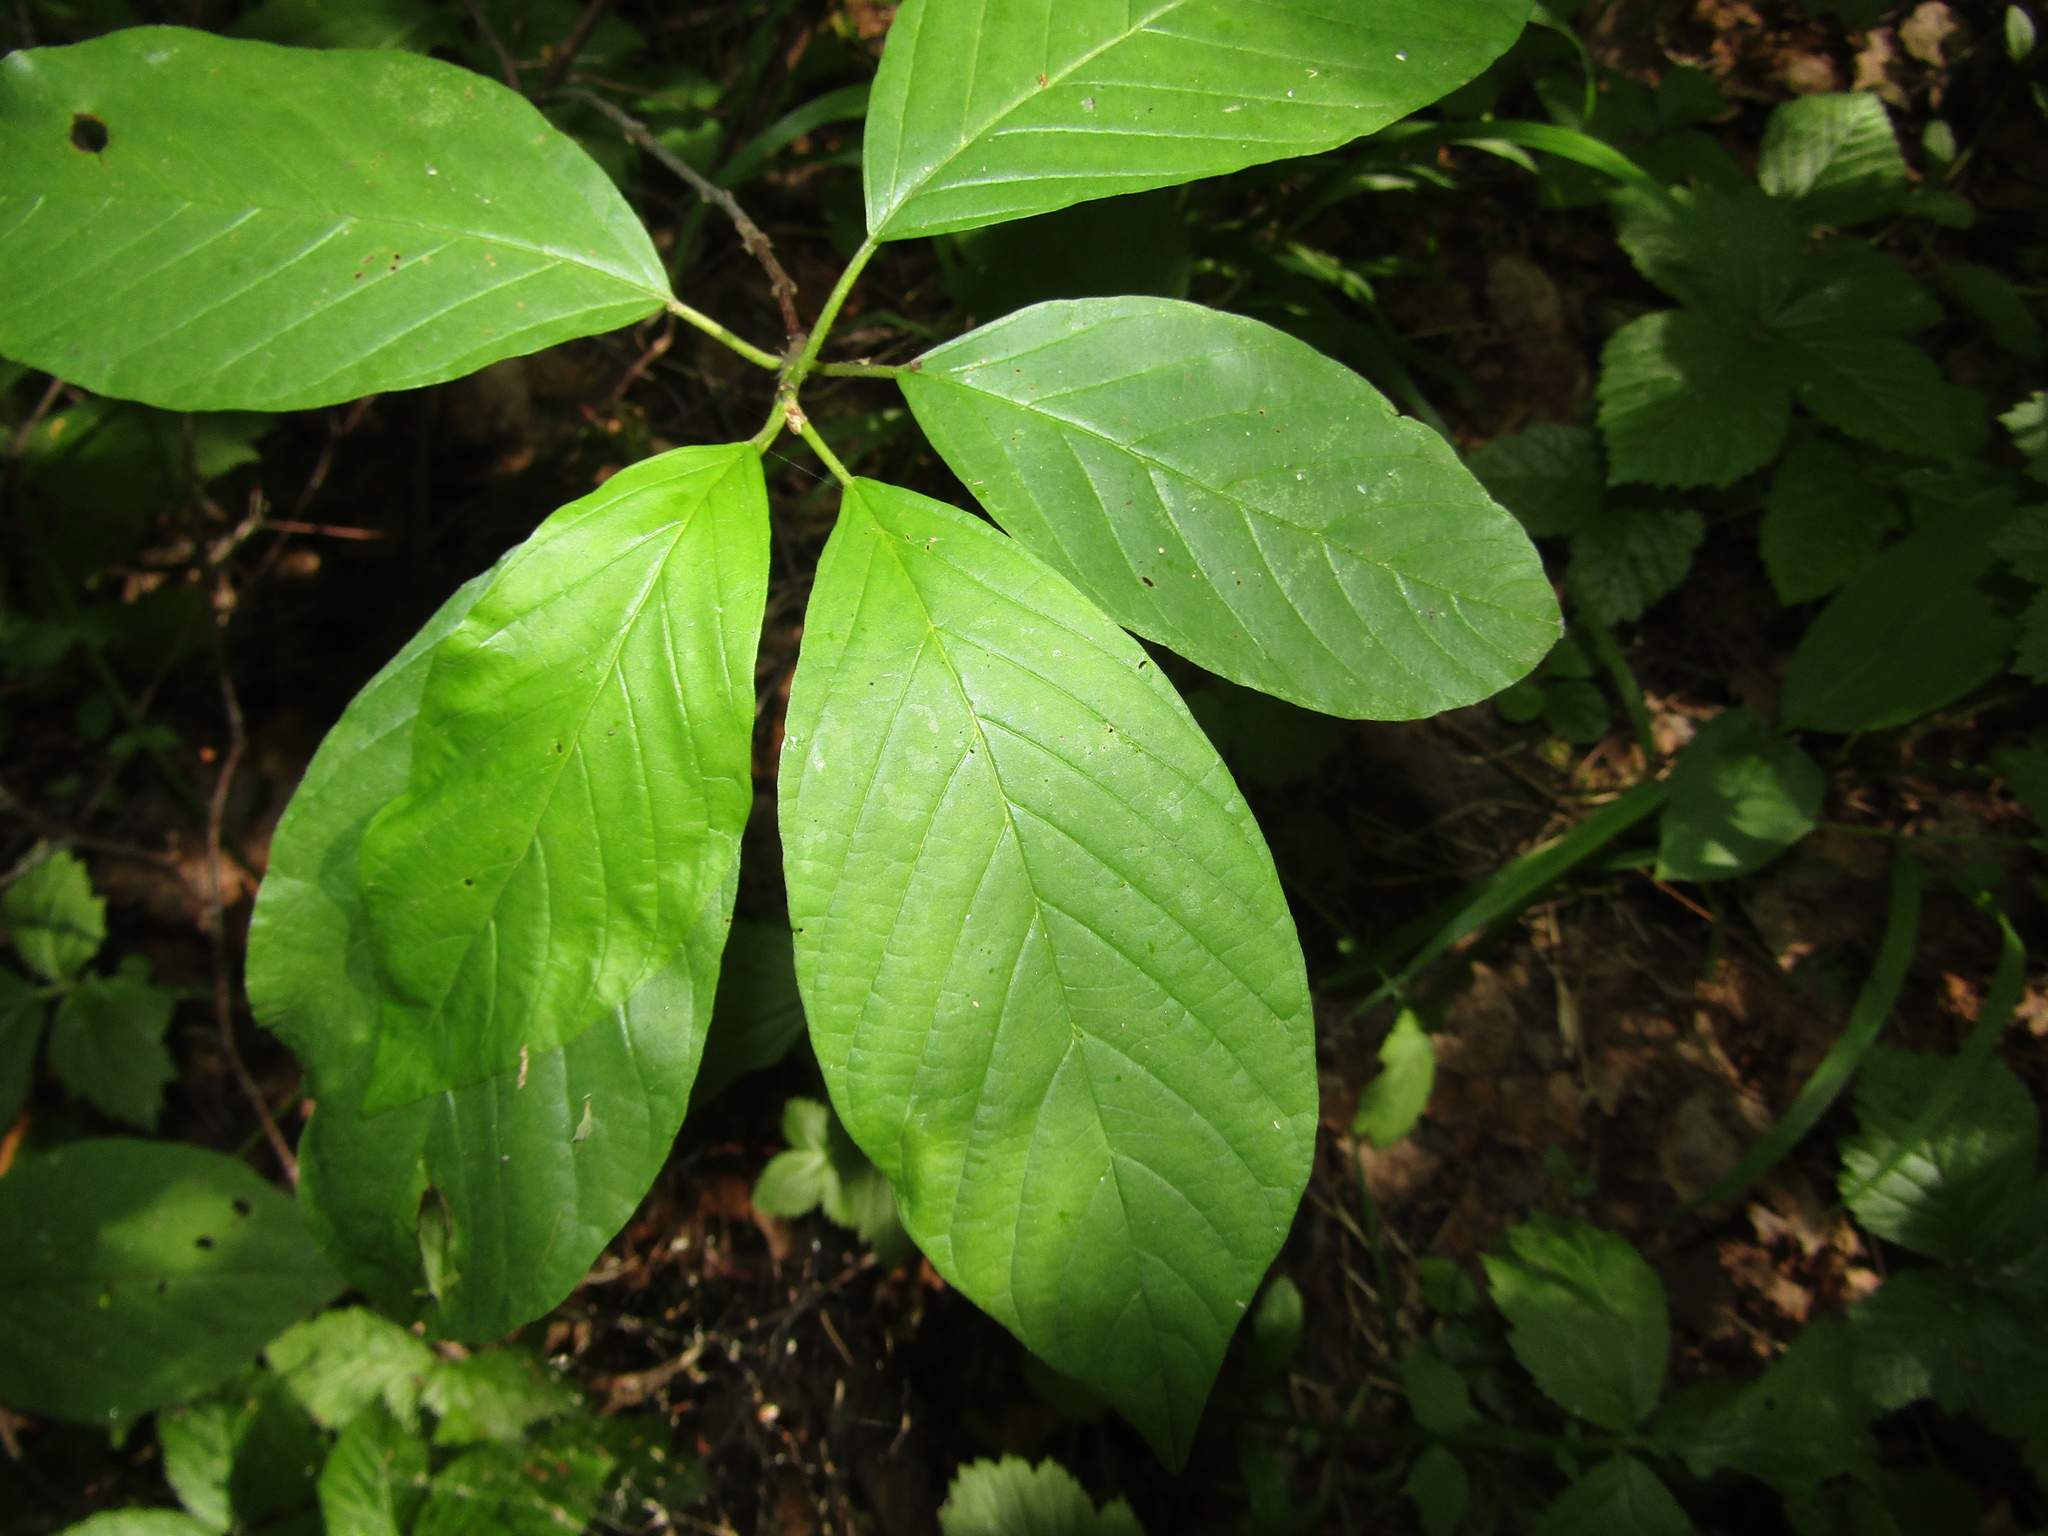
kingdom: Plantae
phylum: Tracheophyta
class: Magnoliopsida
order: Rosales
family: Rhamnaceae
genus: Frangula
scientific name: Frangula alnus
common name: Alder buckthorn
